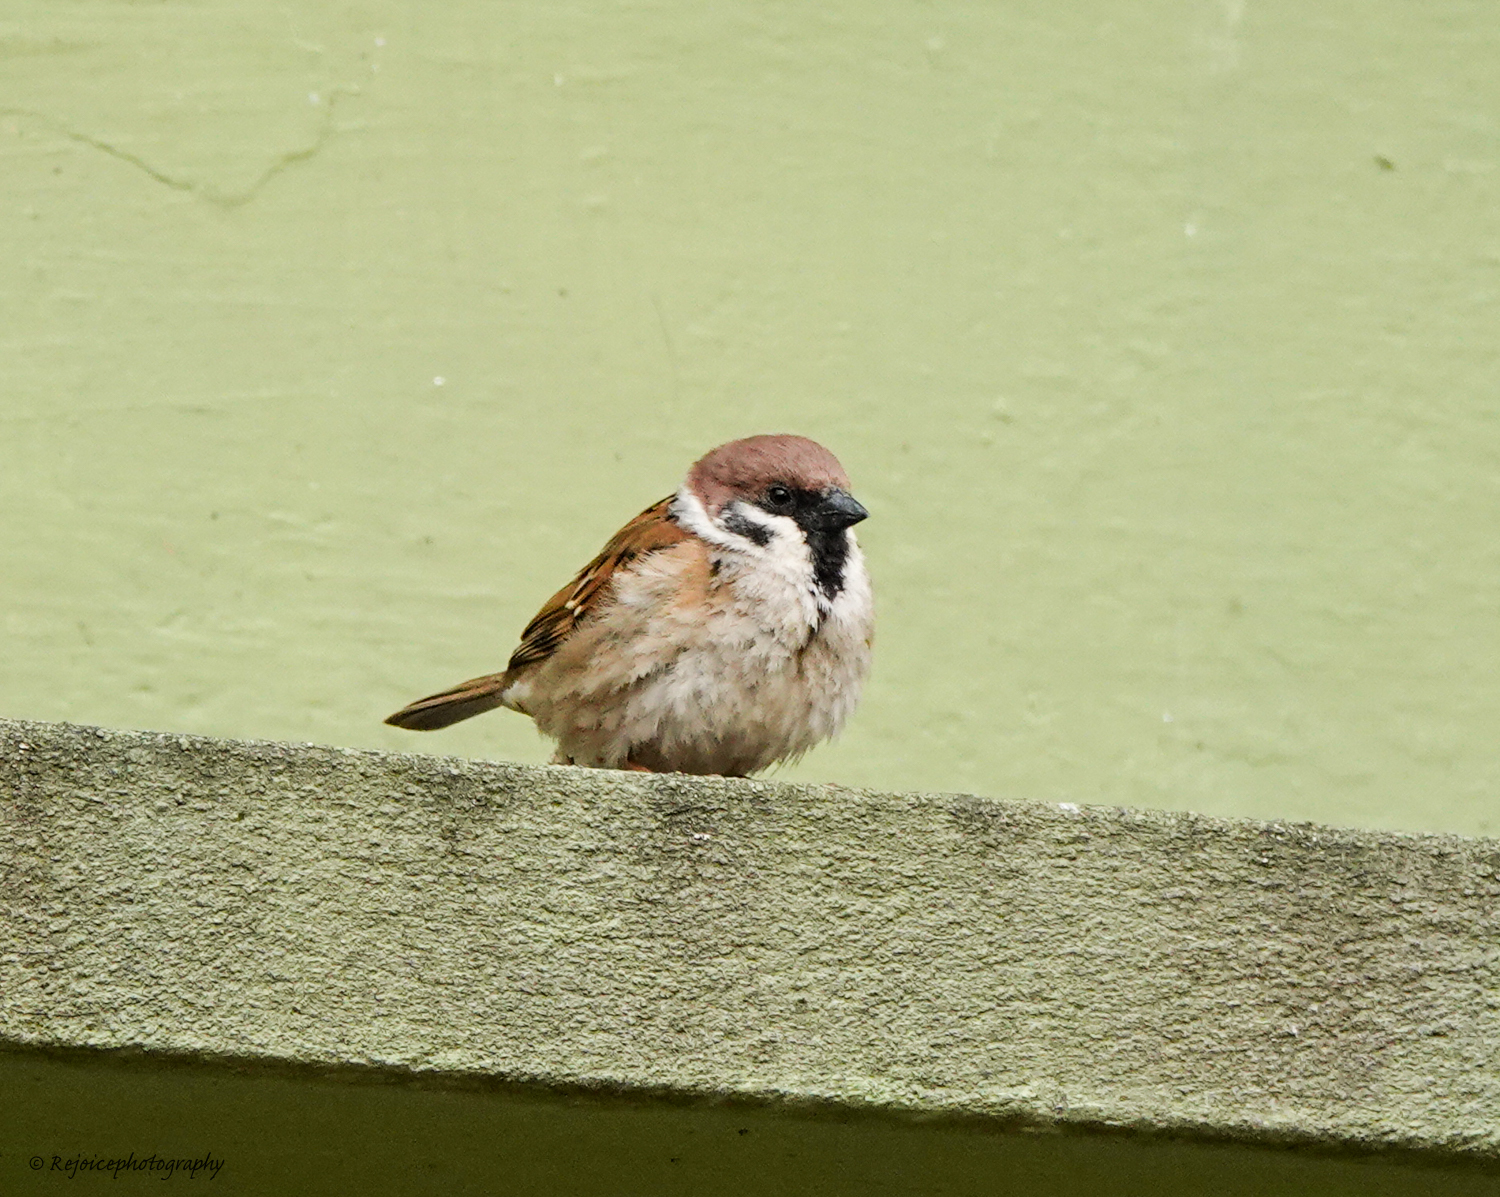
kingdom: Animalia
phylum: Chordata
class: Aves
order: Passeriformes
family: Passeridae
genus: Passer
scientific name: Passer montanus
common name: Eurasian tree sparrow
